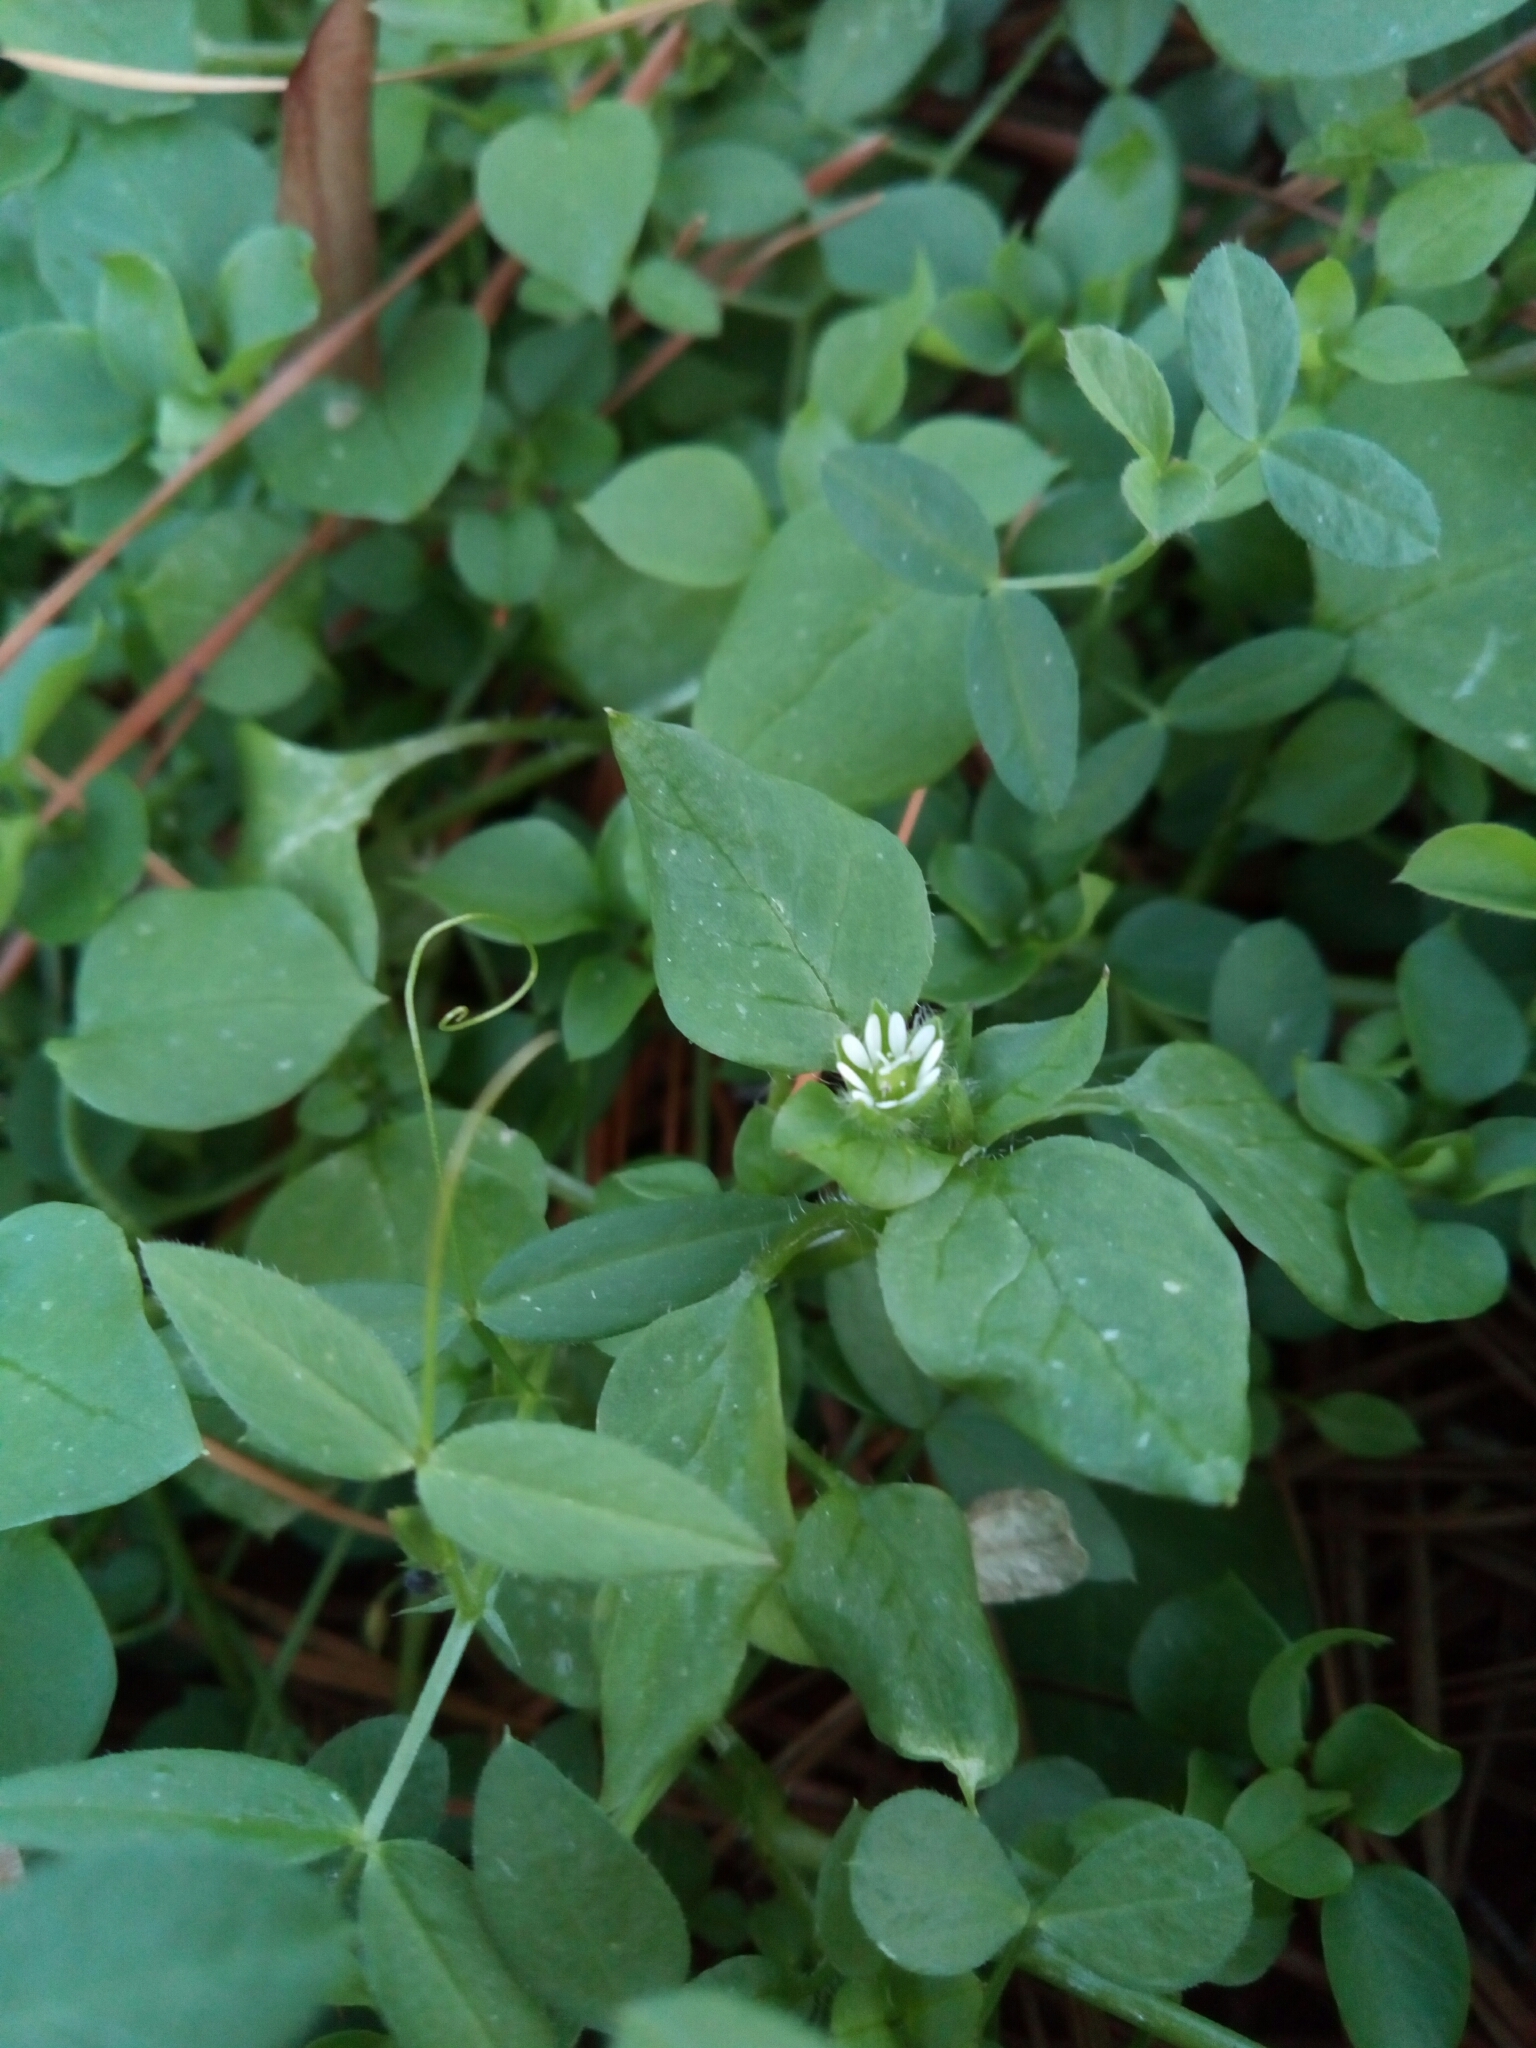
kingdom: Plantae
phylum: Tracheophyta
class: Magnoliopsida
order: Caryophyllales
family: Caryophyllaceae
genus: Stellaria
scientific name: Stellaria media
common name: Common chickweed
